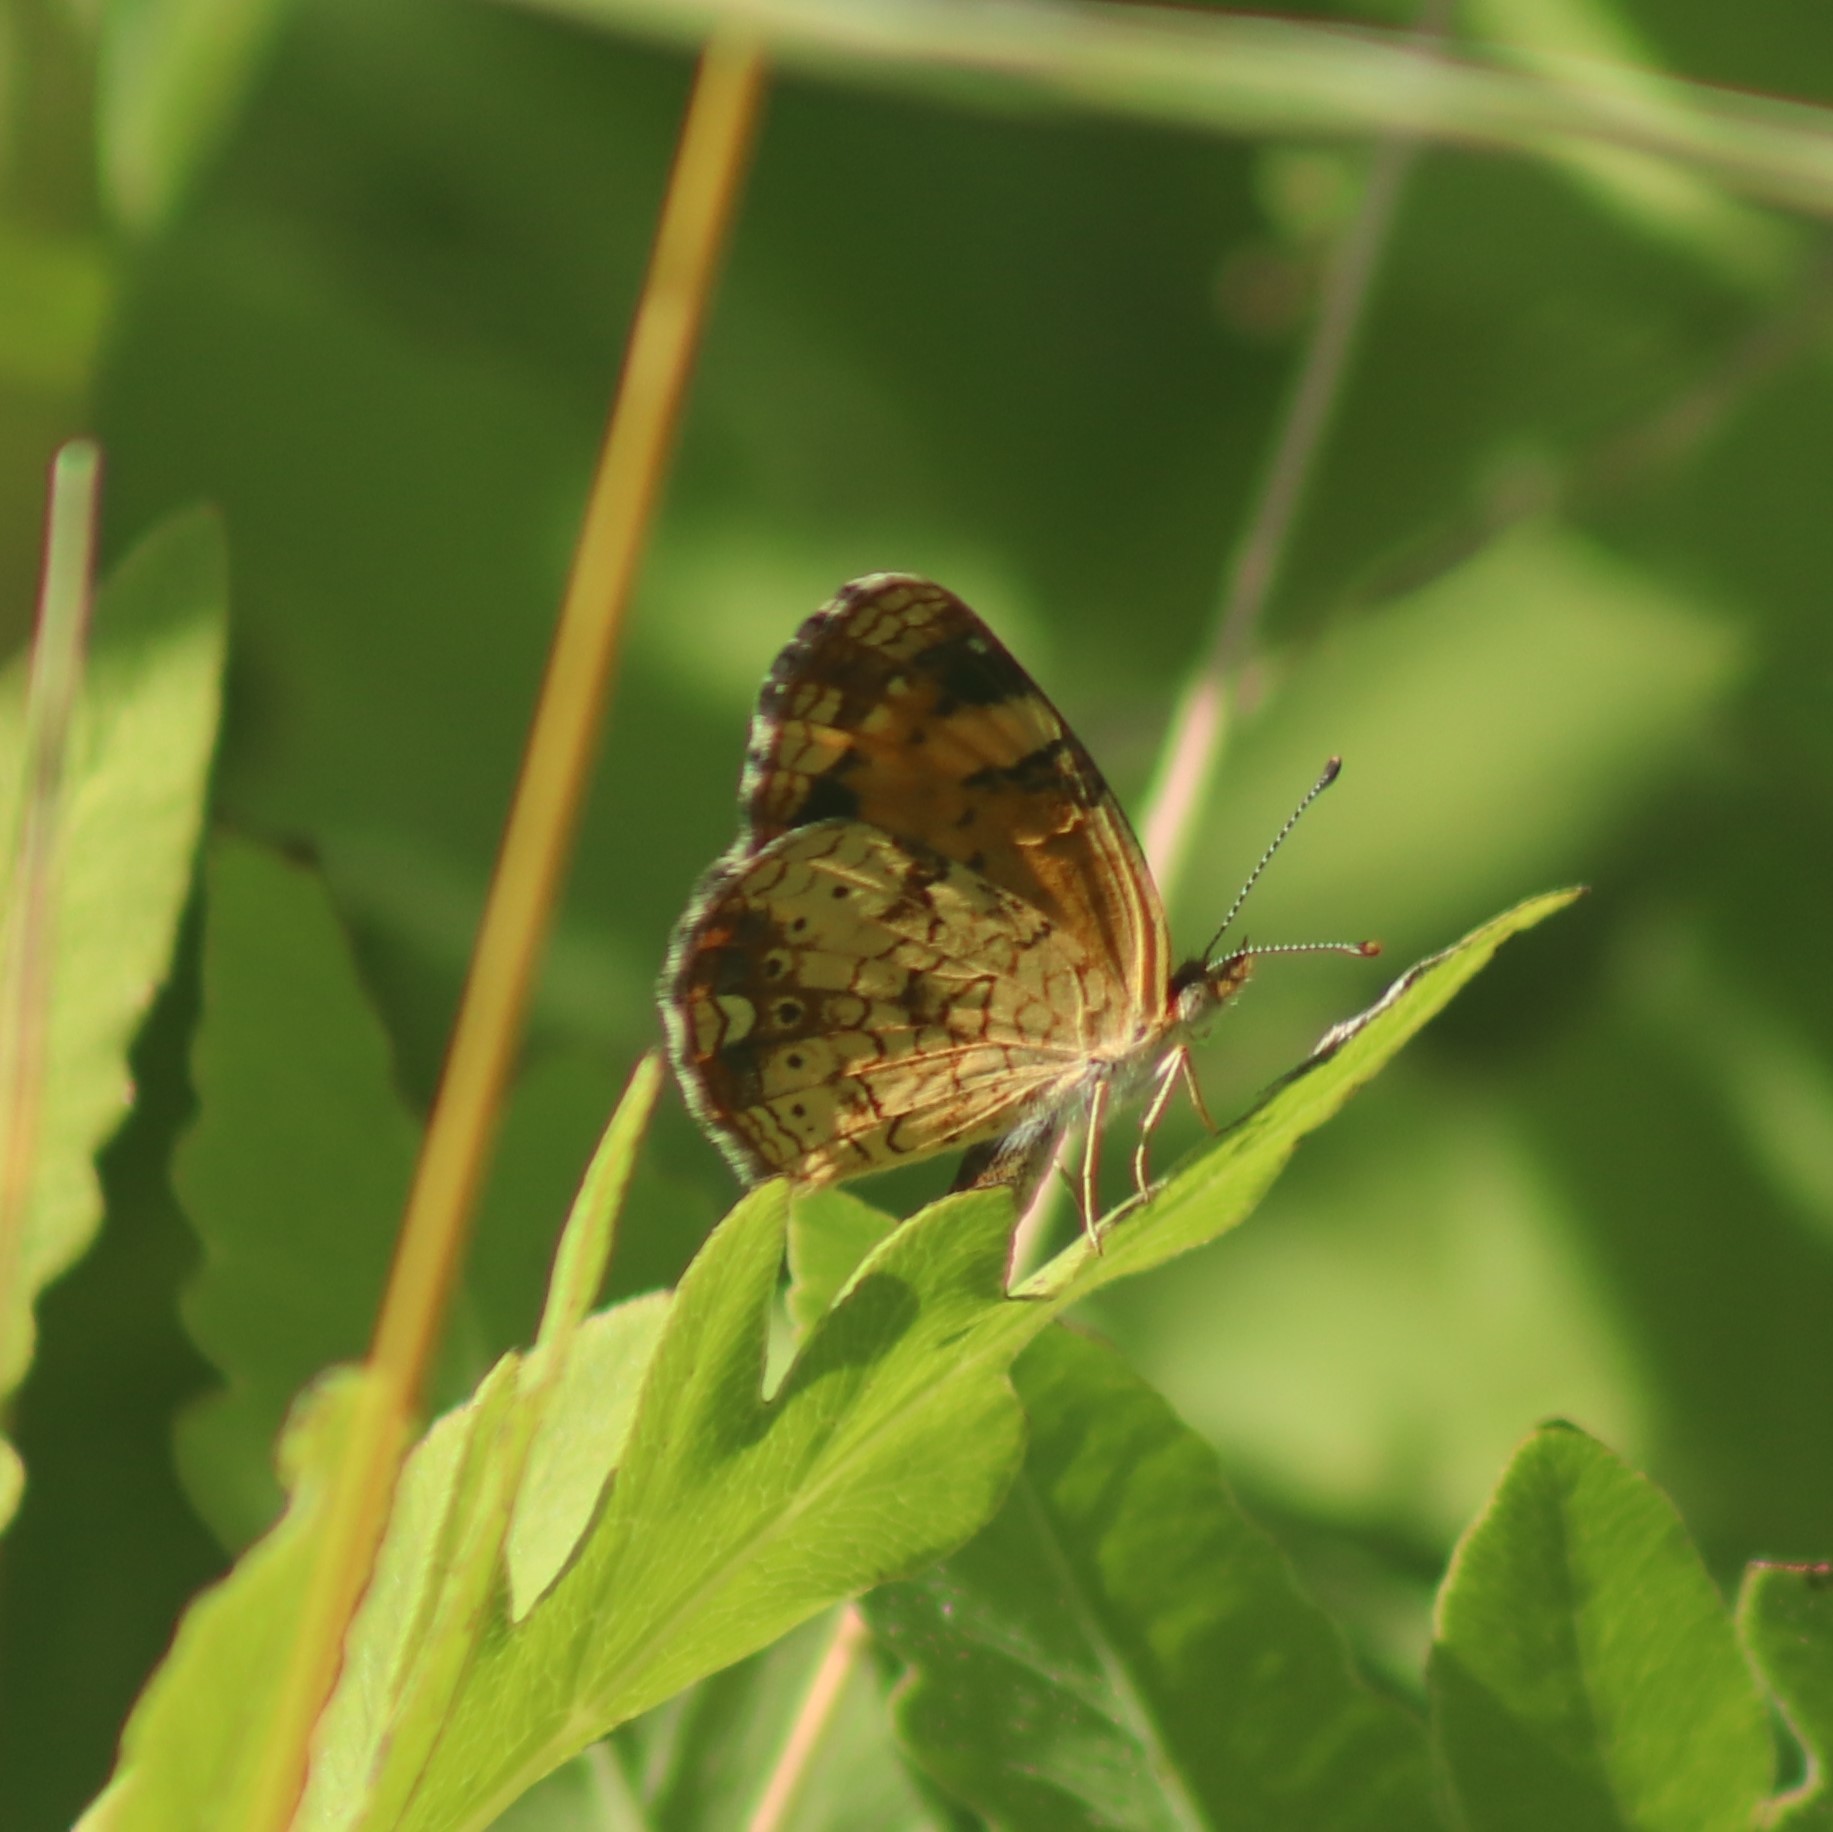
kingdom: Animalia
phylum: Arthropoda
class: Insecta
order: Lepidoptera
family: Nymphalidae
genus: Phyciodes
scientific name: Phyciodes tharos
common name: Pearl crescent
